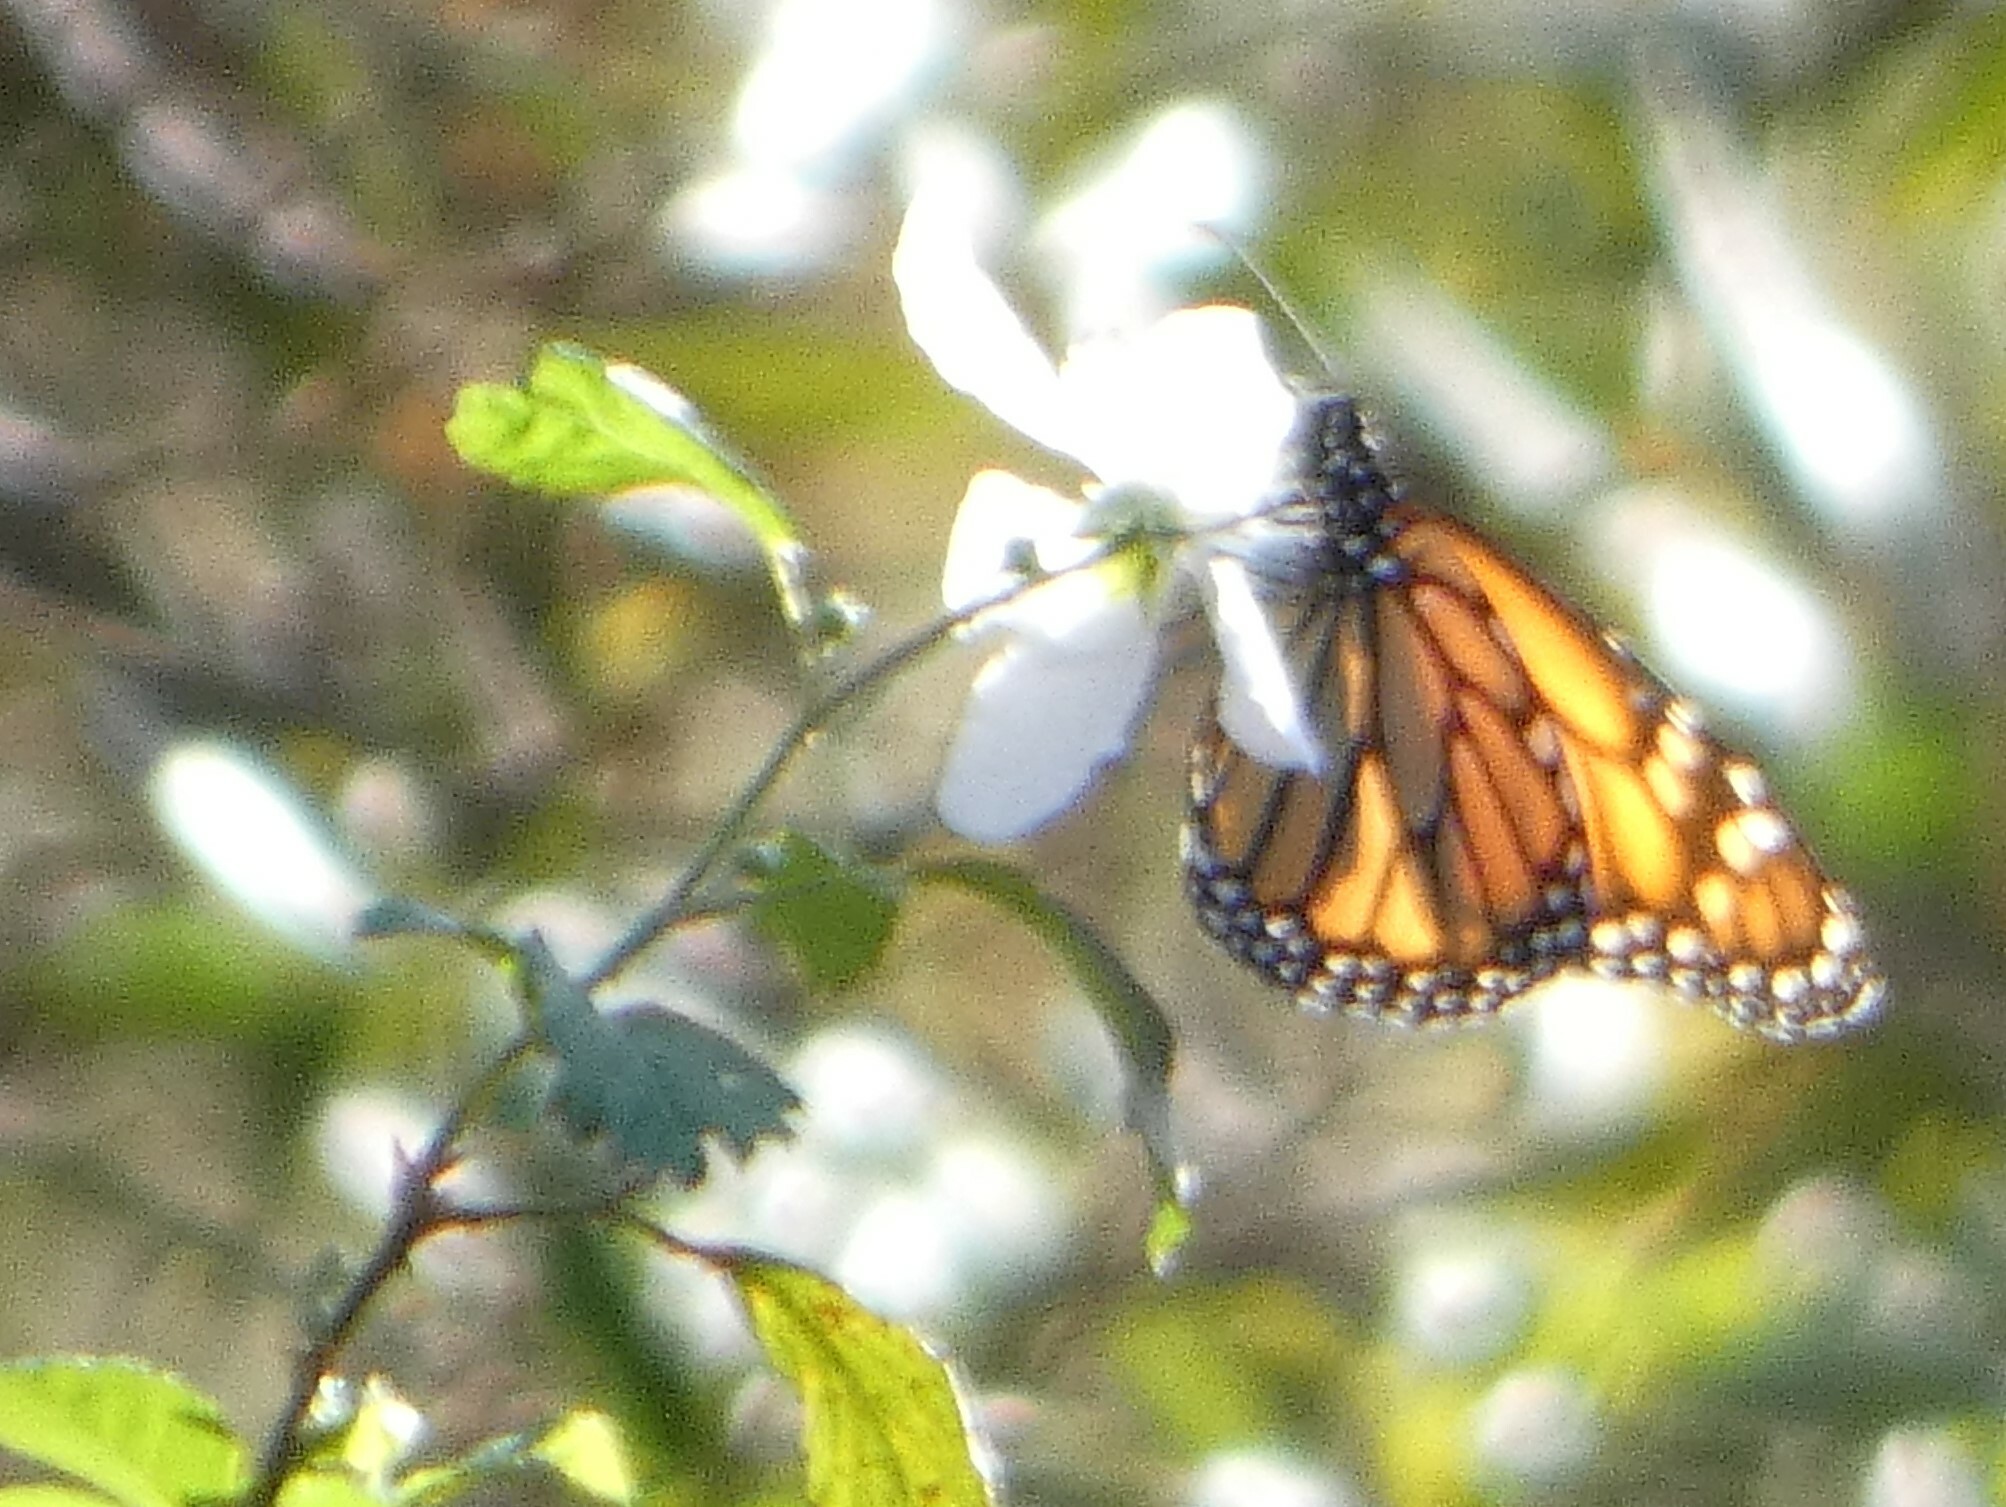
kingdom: Animalia
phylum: Arthropoda
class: Insecta
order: Lepidoptera
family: Nymphalidae
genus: Danaus
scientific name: Danaus plexippus
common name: Monarch
